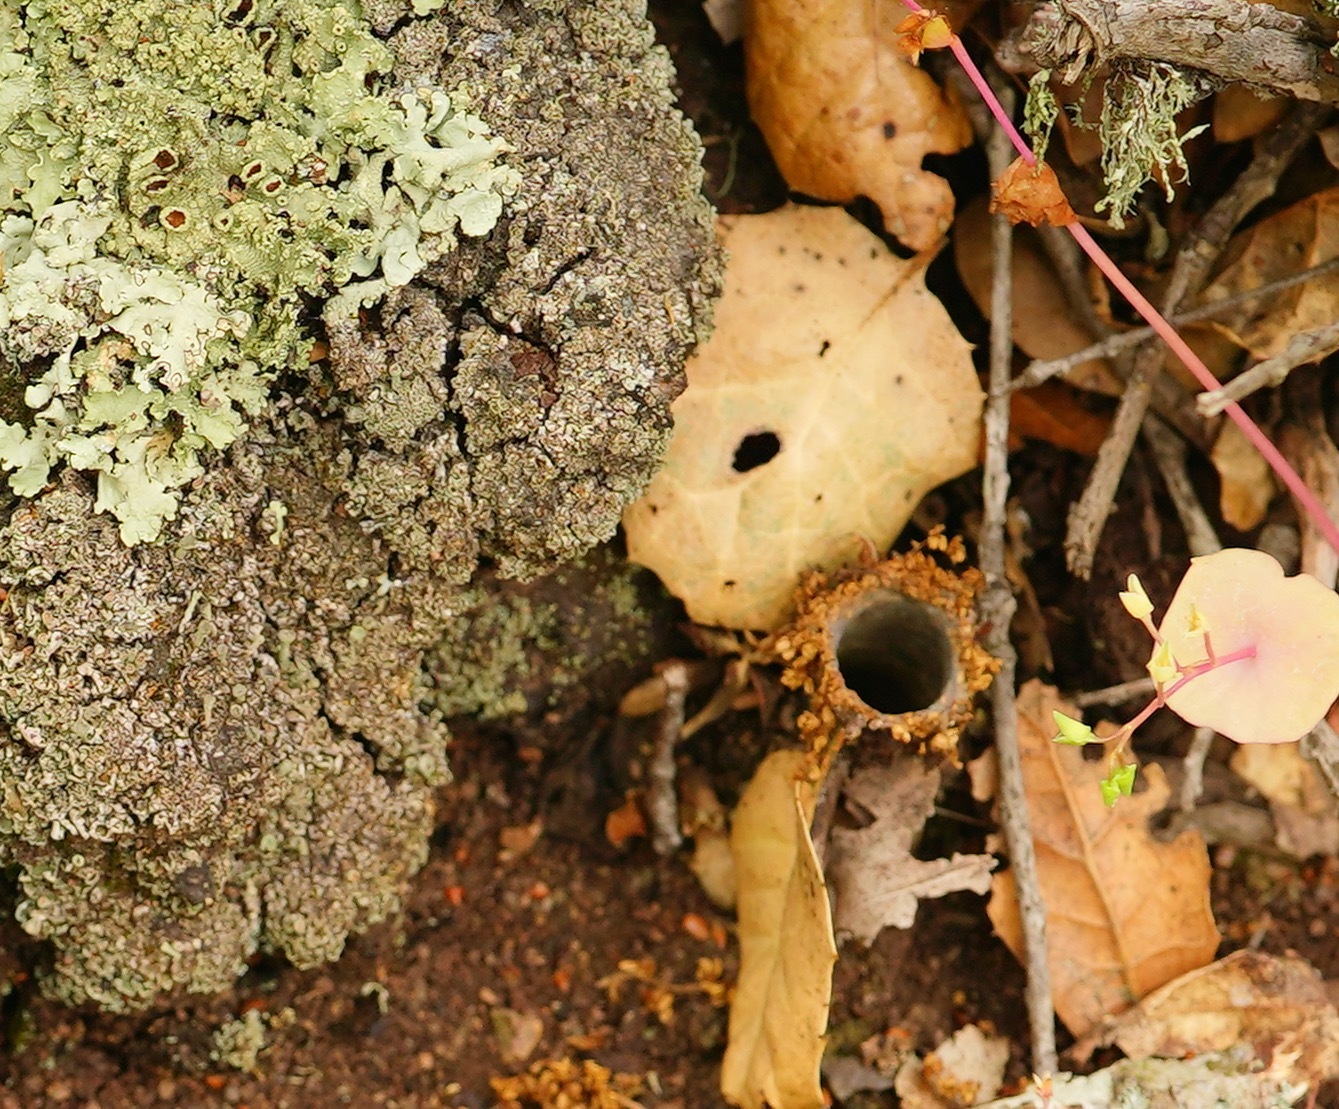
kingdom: Animalia
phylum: Arthropoda
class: Arachnida
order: Araneae
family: Antrodiaetidae
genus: Atypoides
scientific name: Atypoides riversi
